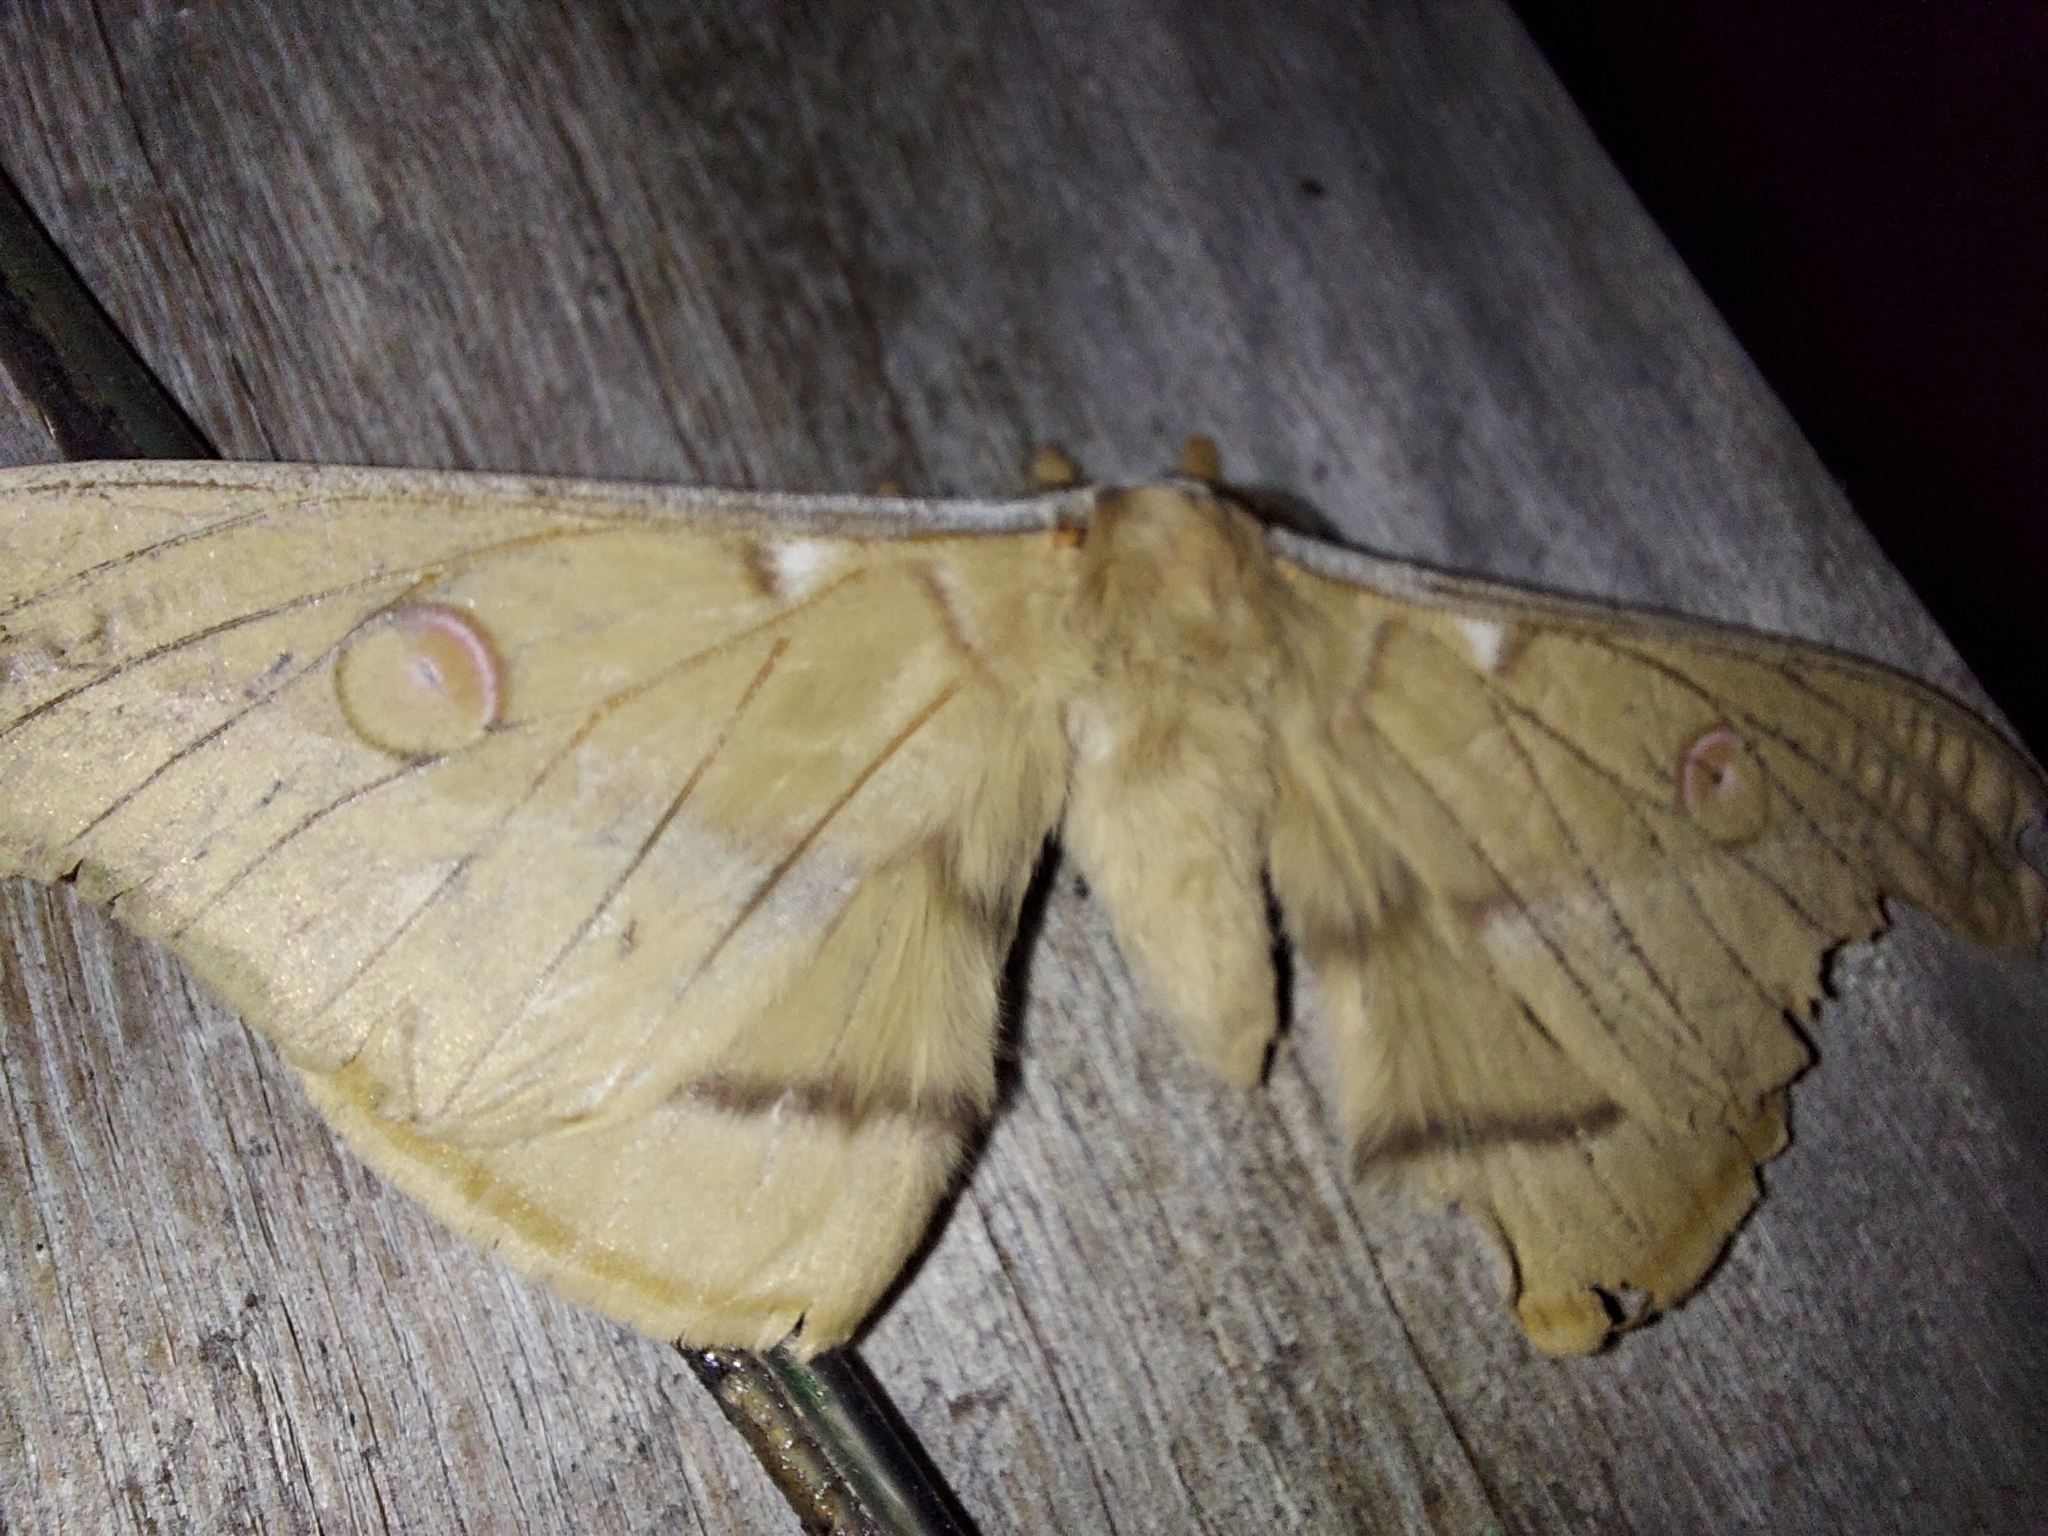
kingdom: Animalia
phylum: Arthropoda
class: Insecta
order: Lepidoptera
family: Saturniidae
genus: Opodiphthera
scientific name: Opodiphthera
